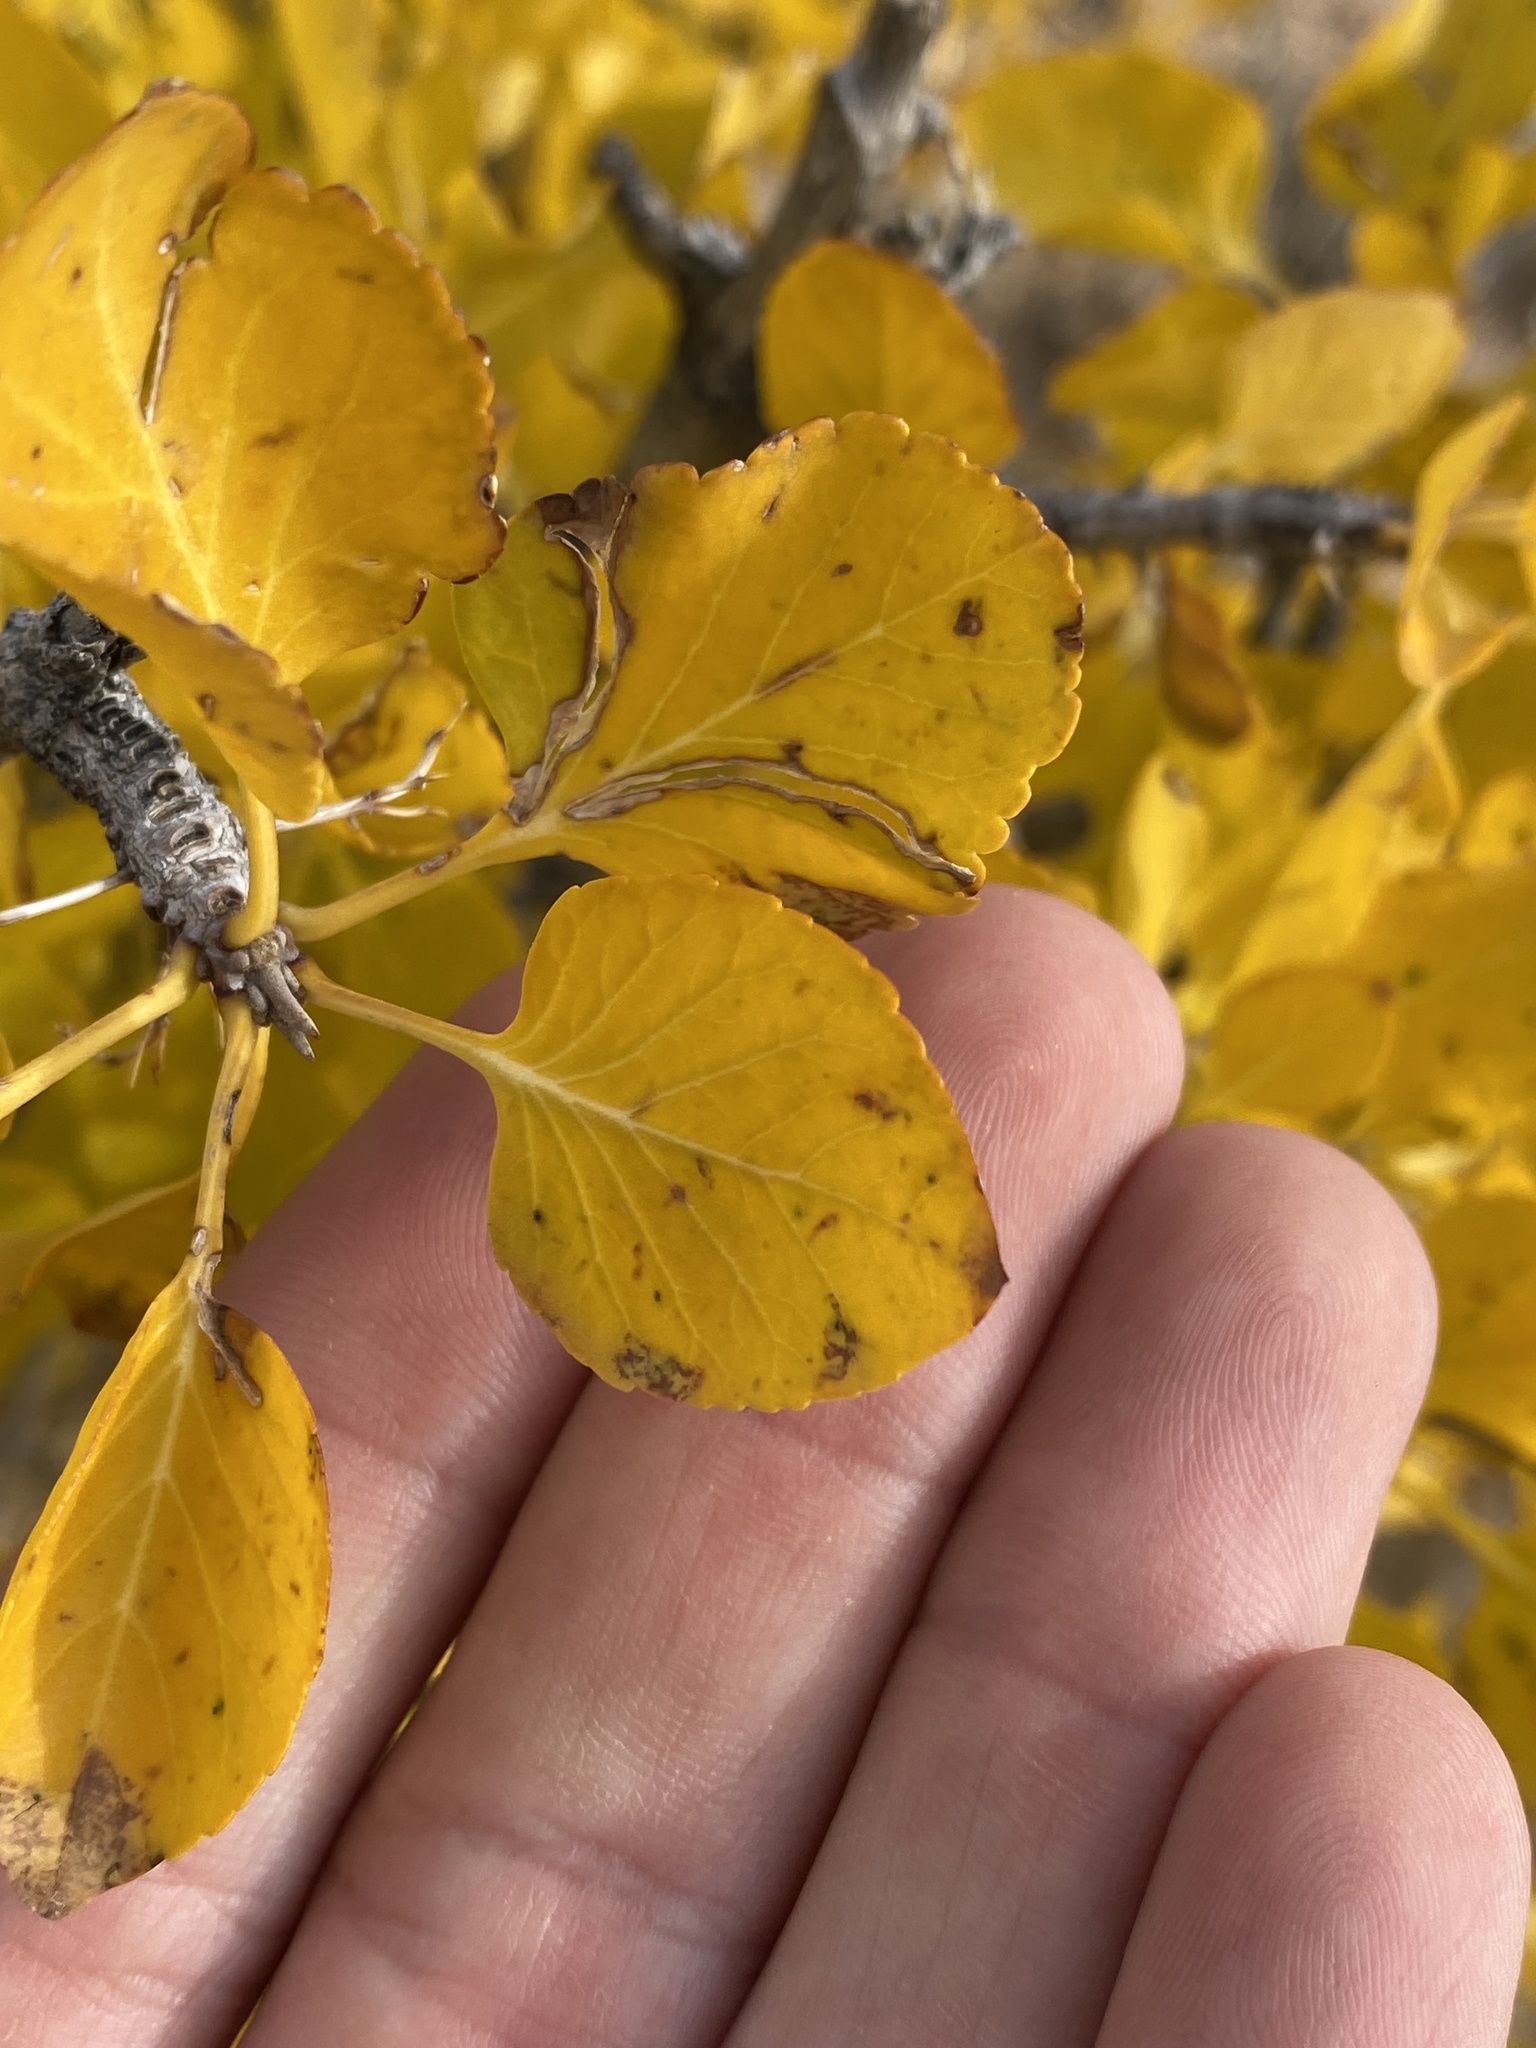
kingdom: Plantae
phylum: Tracheophyta
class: Magnoliopsida
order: Lamiales
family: Oleaceae
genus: Fraxinus
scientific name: Fraxinus anomala
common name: Utah ash
